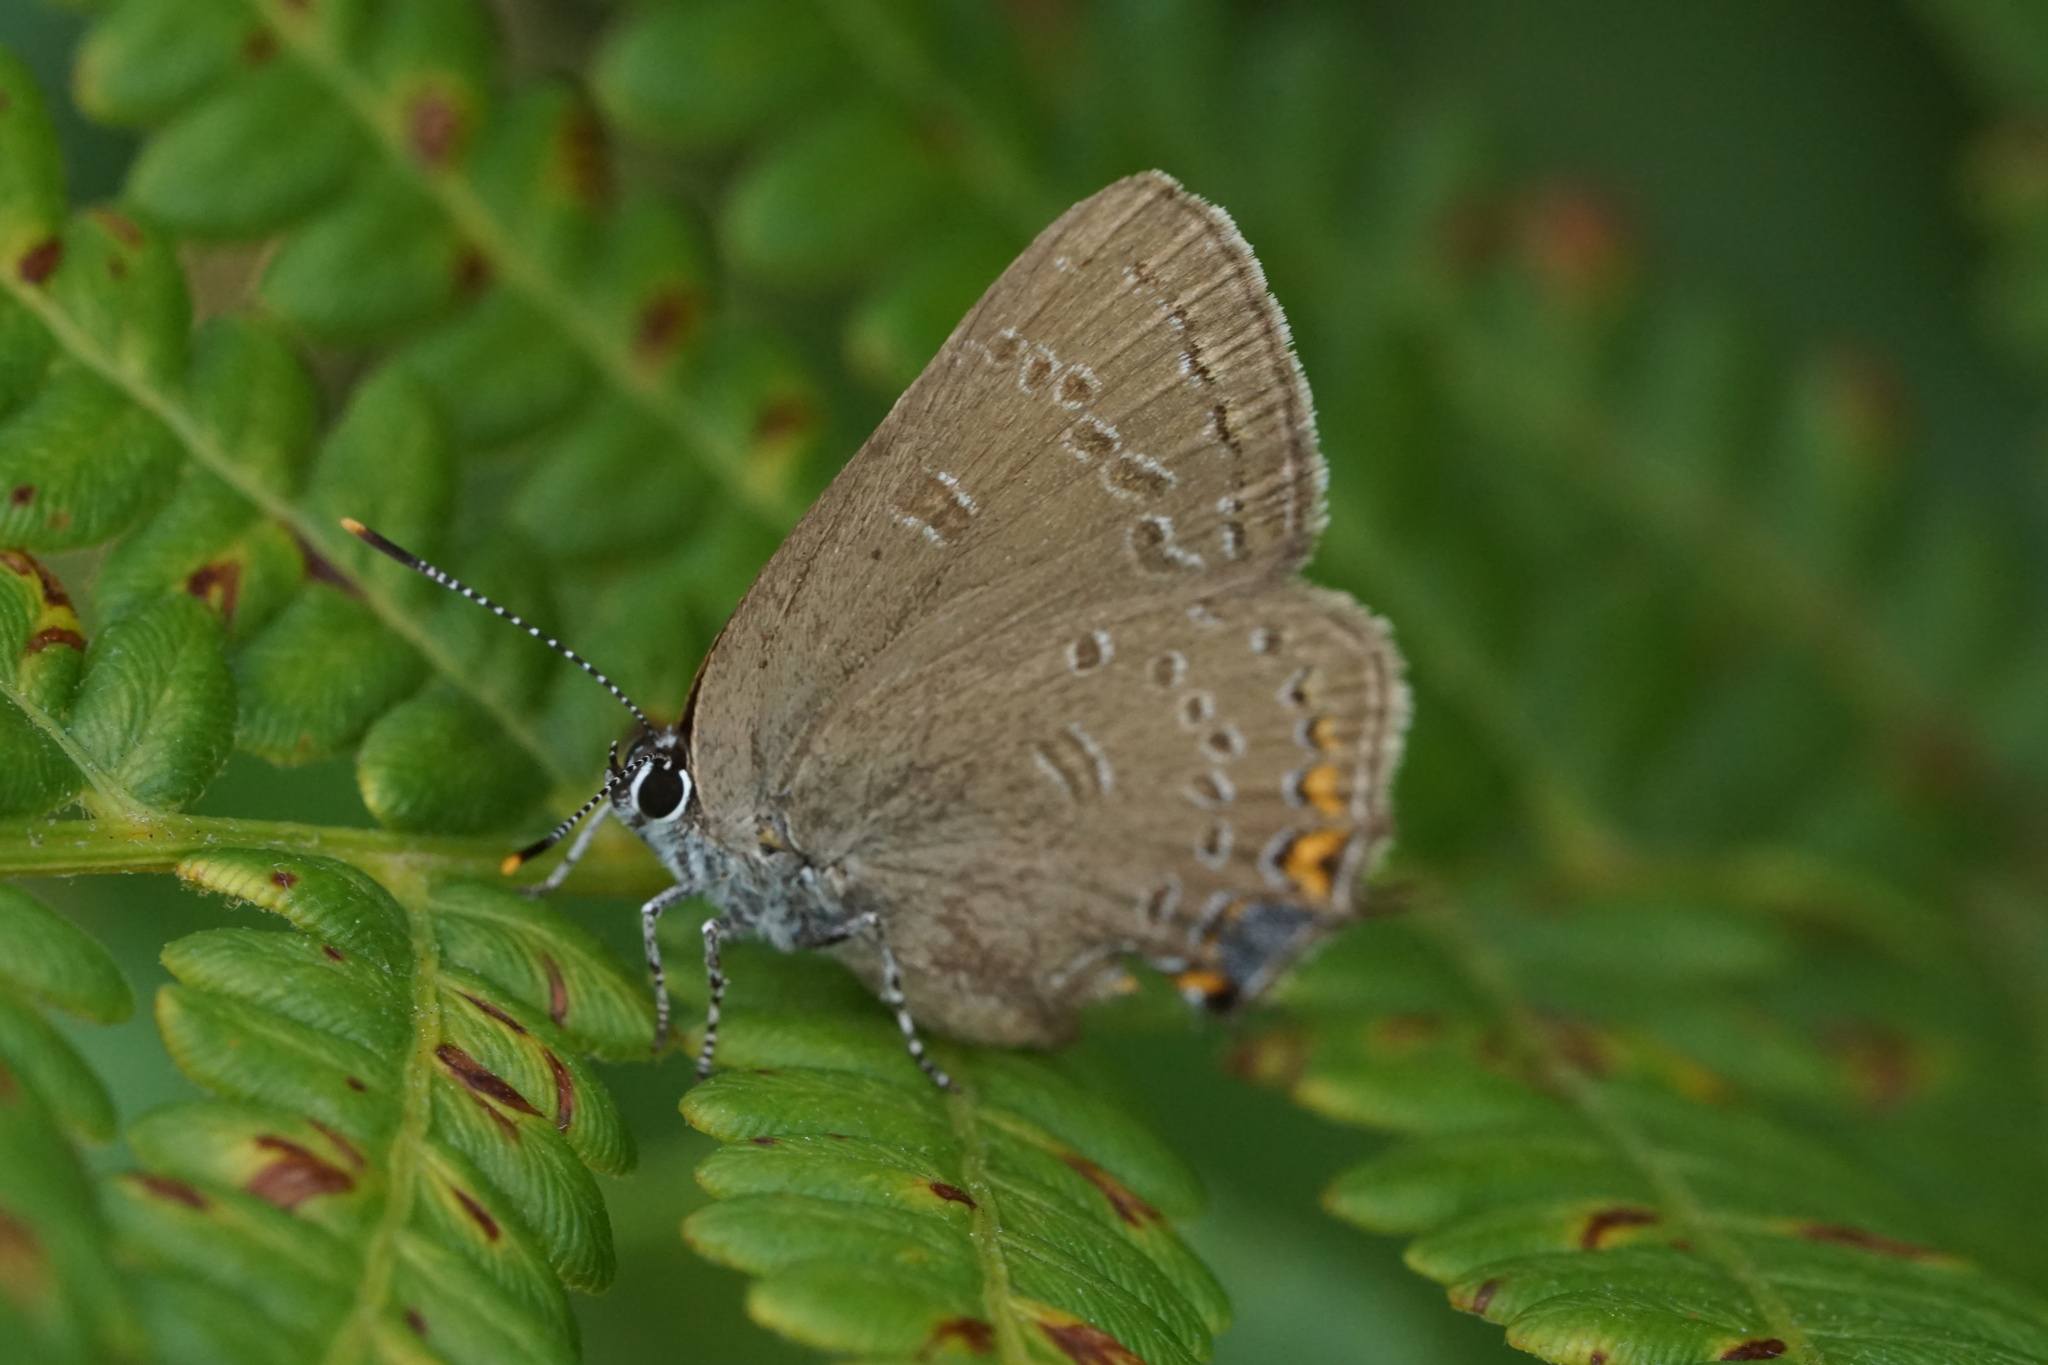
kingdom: Animalia
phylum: Arthropoda
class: Insecta
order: Lepidoptera
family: Lycaenidae
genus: Satyrium
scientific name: Satyrium edwardsii
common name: Edwards' hairstreak
